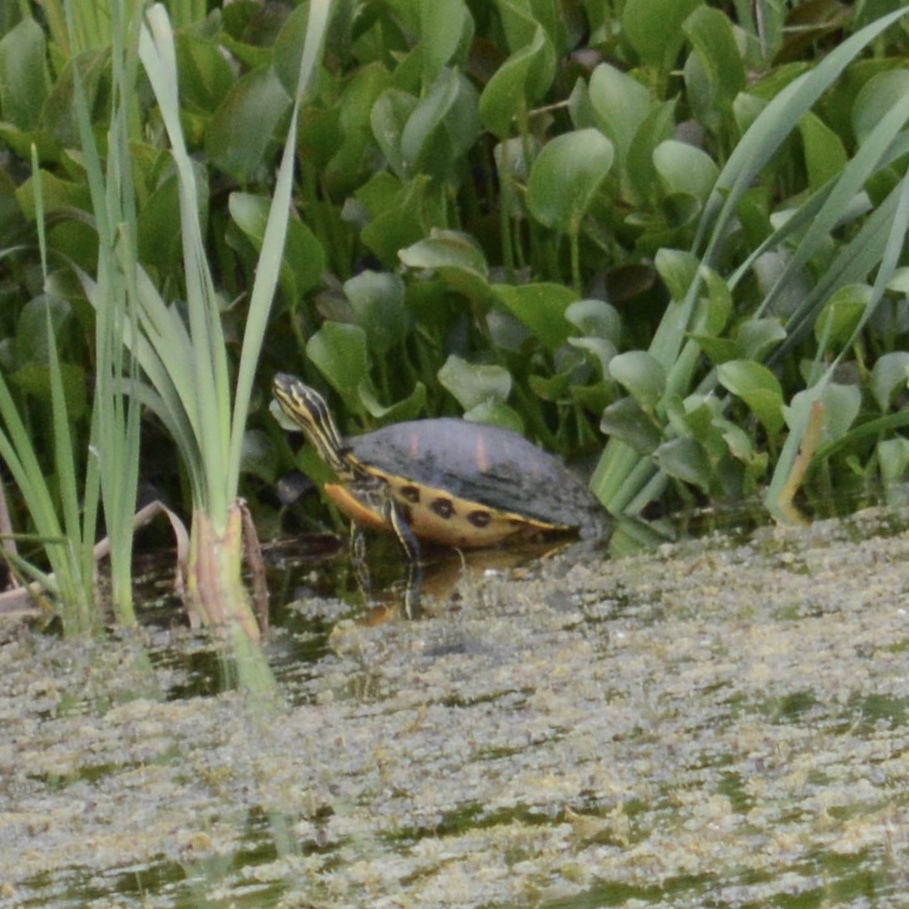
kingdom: Animalia
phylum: Chordata
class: Testudines
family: Emydidae
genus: Pseudemys
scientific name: Pseudemys peninsularis
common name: Peninsula cooter
